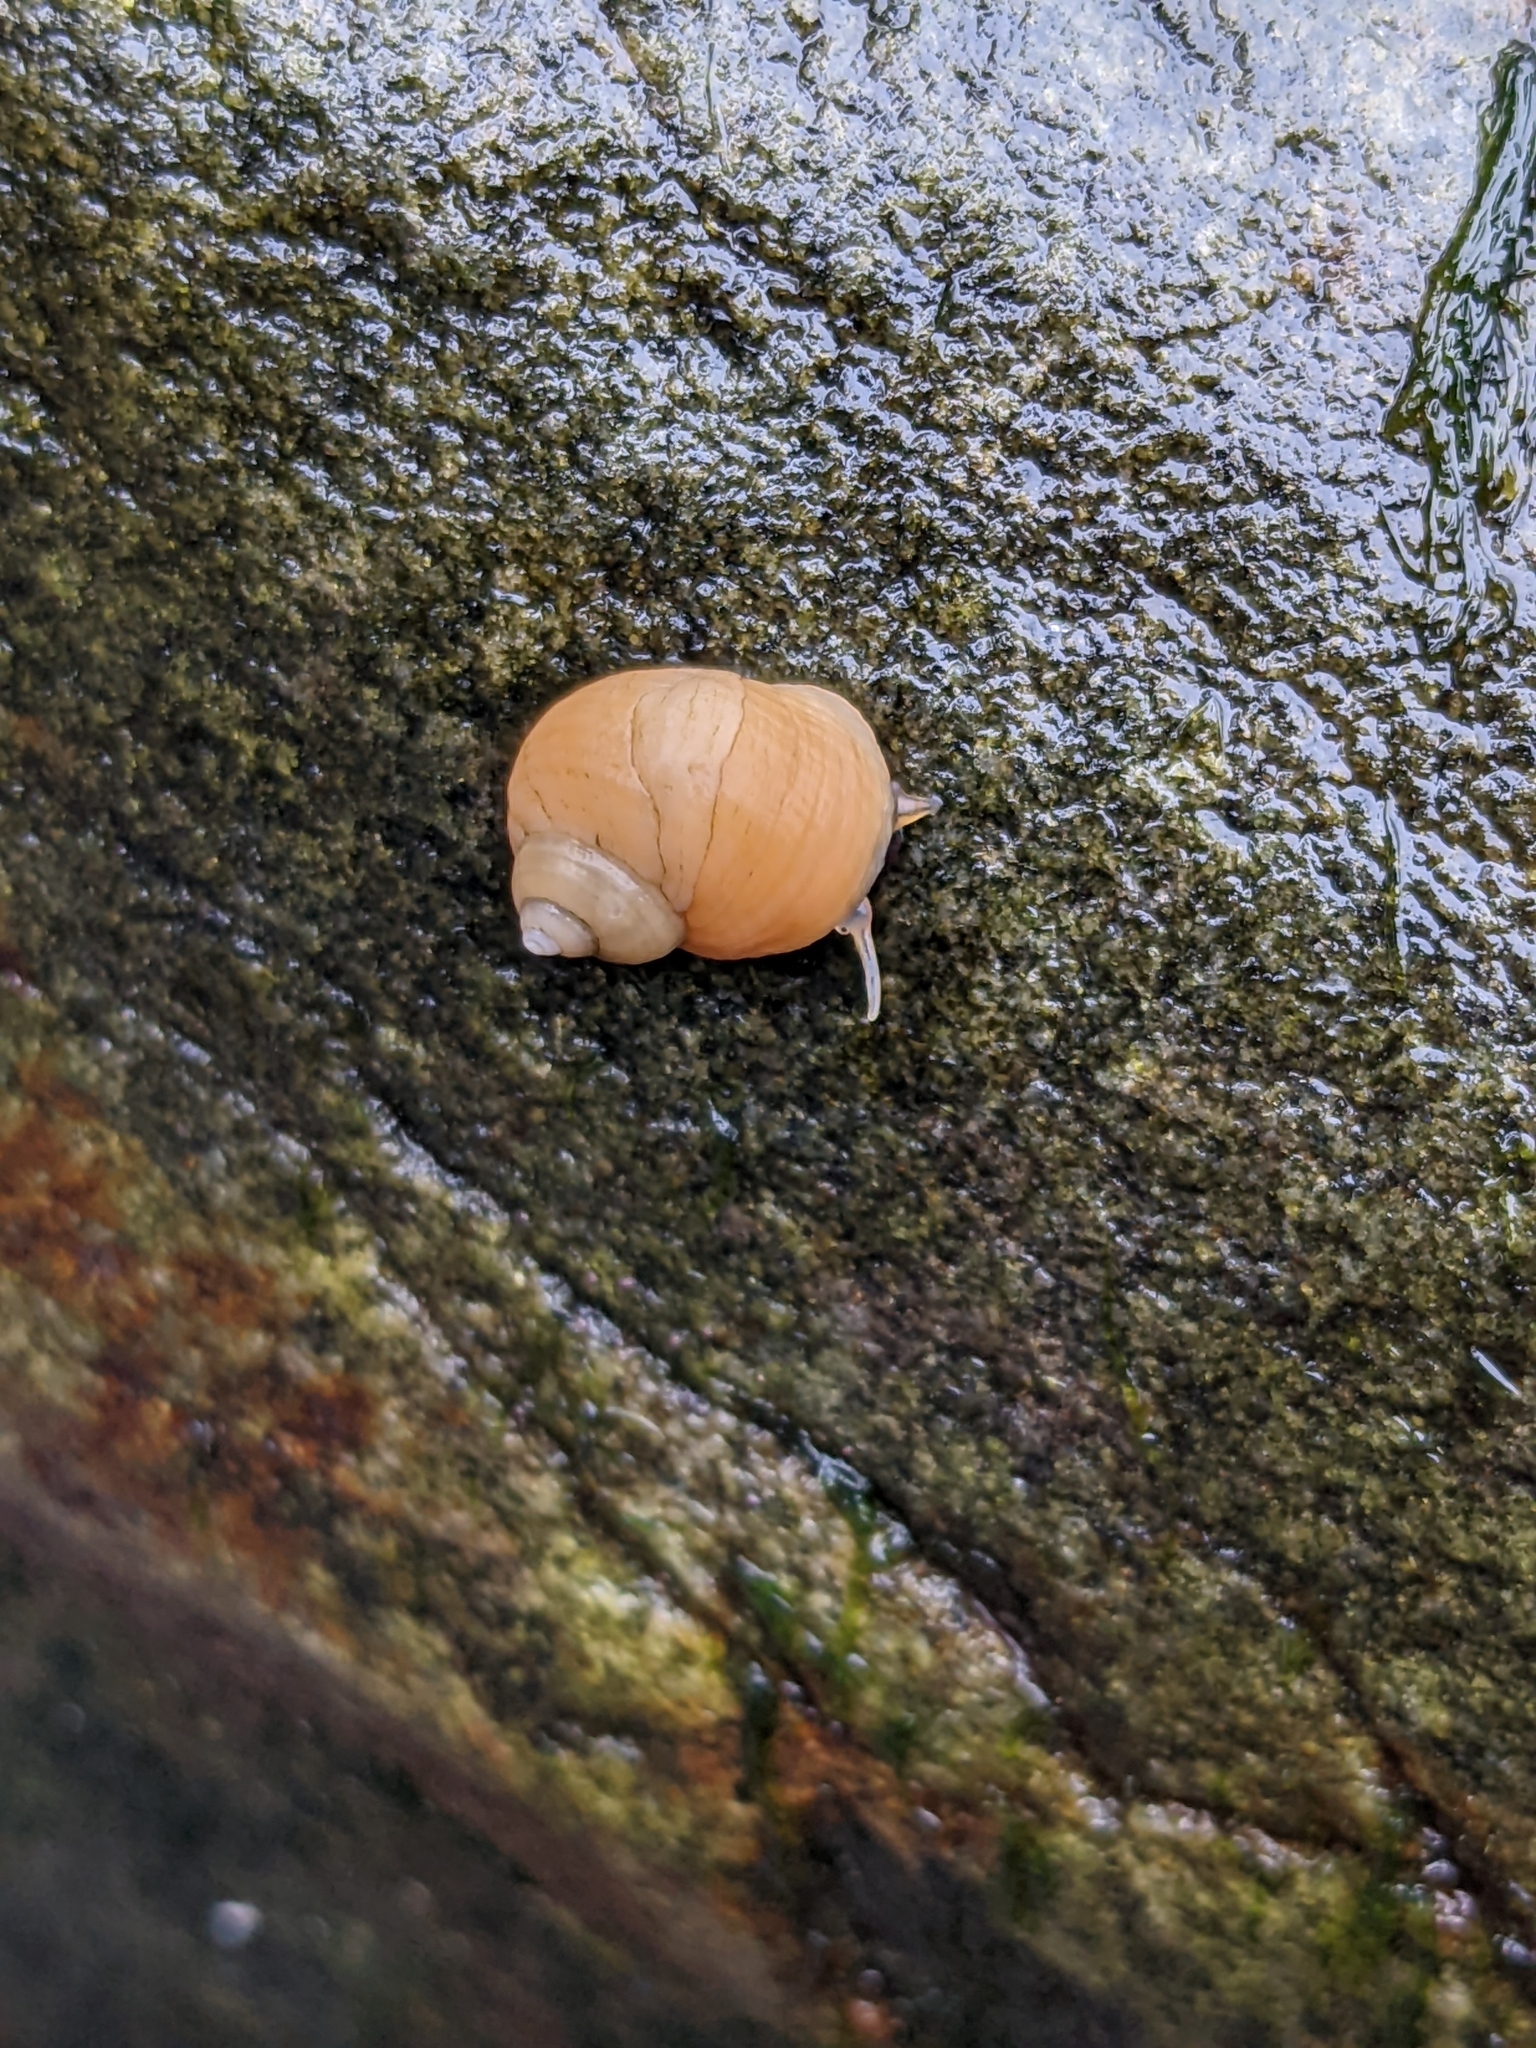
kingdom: Animalia
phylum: Mollusca
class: Gastropoda
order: Littorinimorpha
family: Littorinidae
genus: Littorina
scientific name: Littorina saxatilis
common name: Black-lined periwinkle
